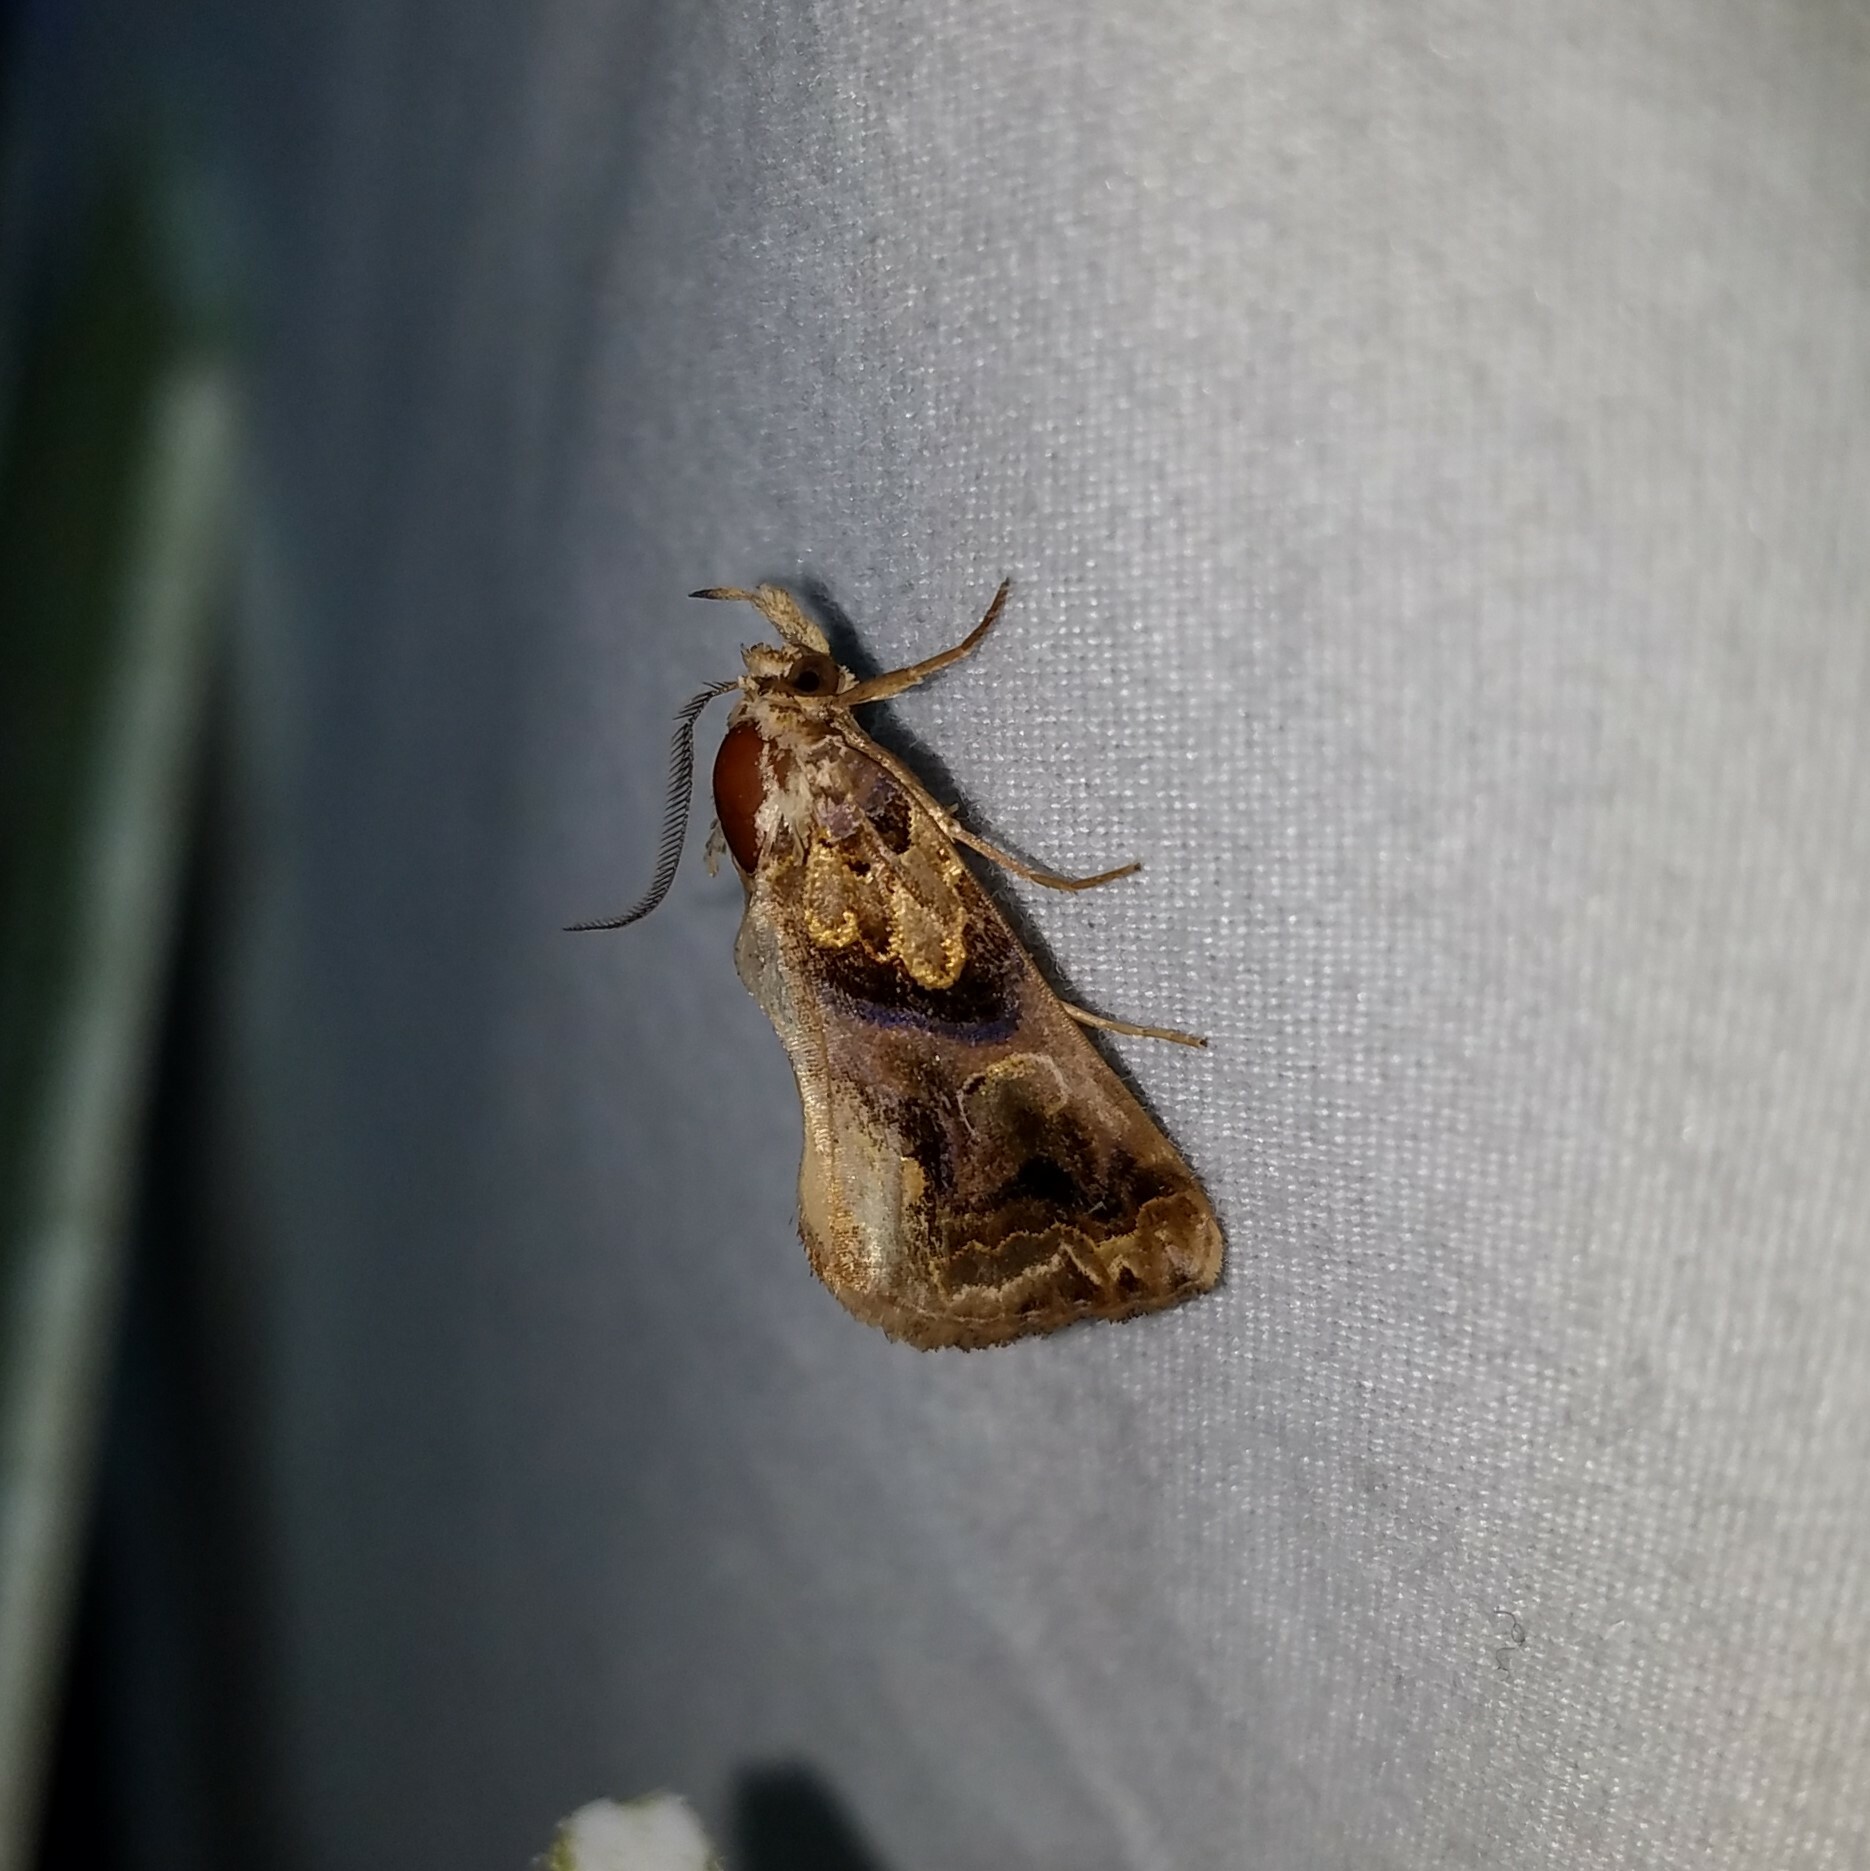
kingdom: Animalia
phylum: Arthropoda
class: Insecta
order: Lepidoptera
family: Erebidae
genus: Plusiodonta
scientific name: Plusiodonta compressipalpis
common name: Moonseed moth
